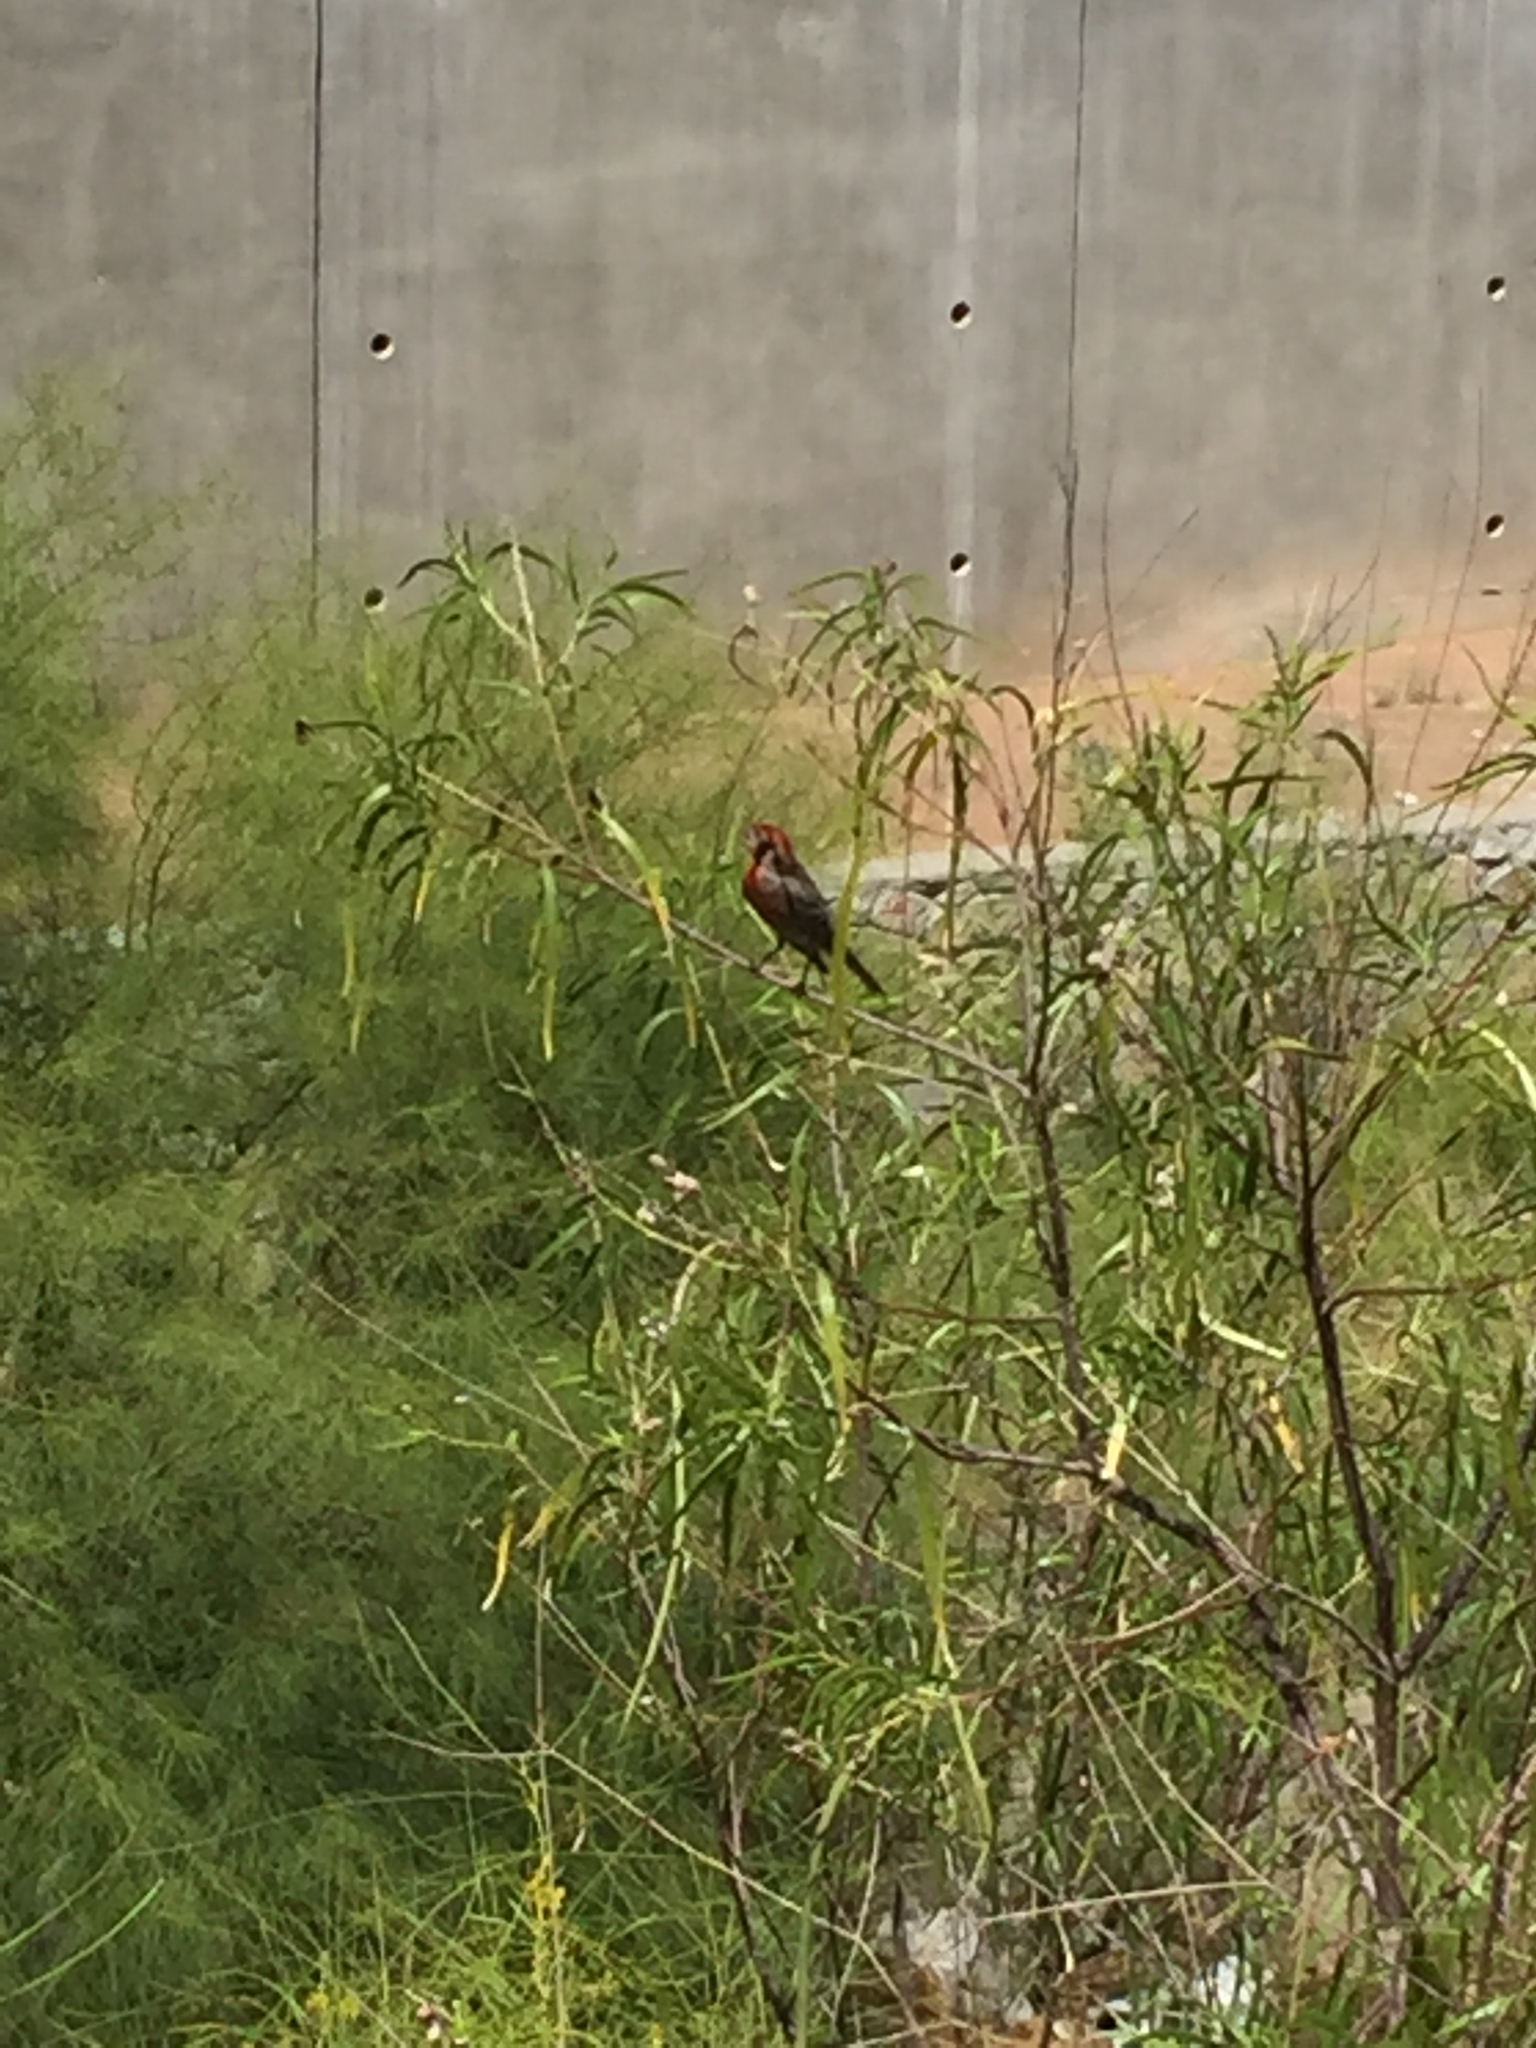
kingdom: Animalia
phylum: Chordata
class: Aves
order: Passeriformes
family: Fringillidae
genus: Haemorhous
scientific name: Haemorhous mexicanus
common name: House finch
